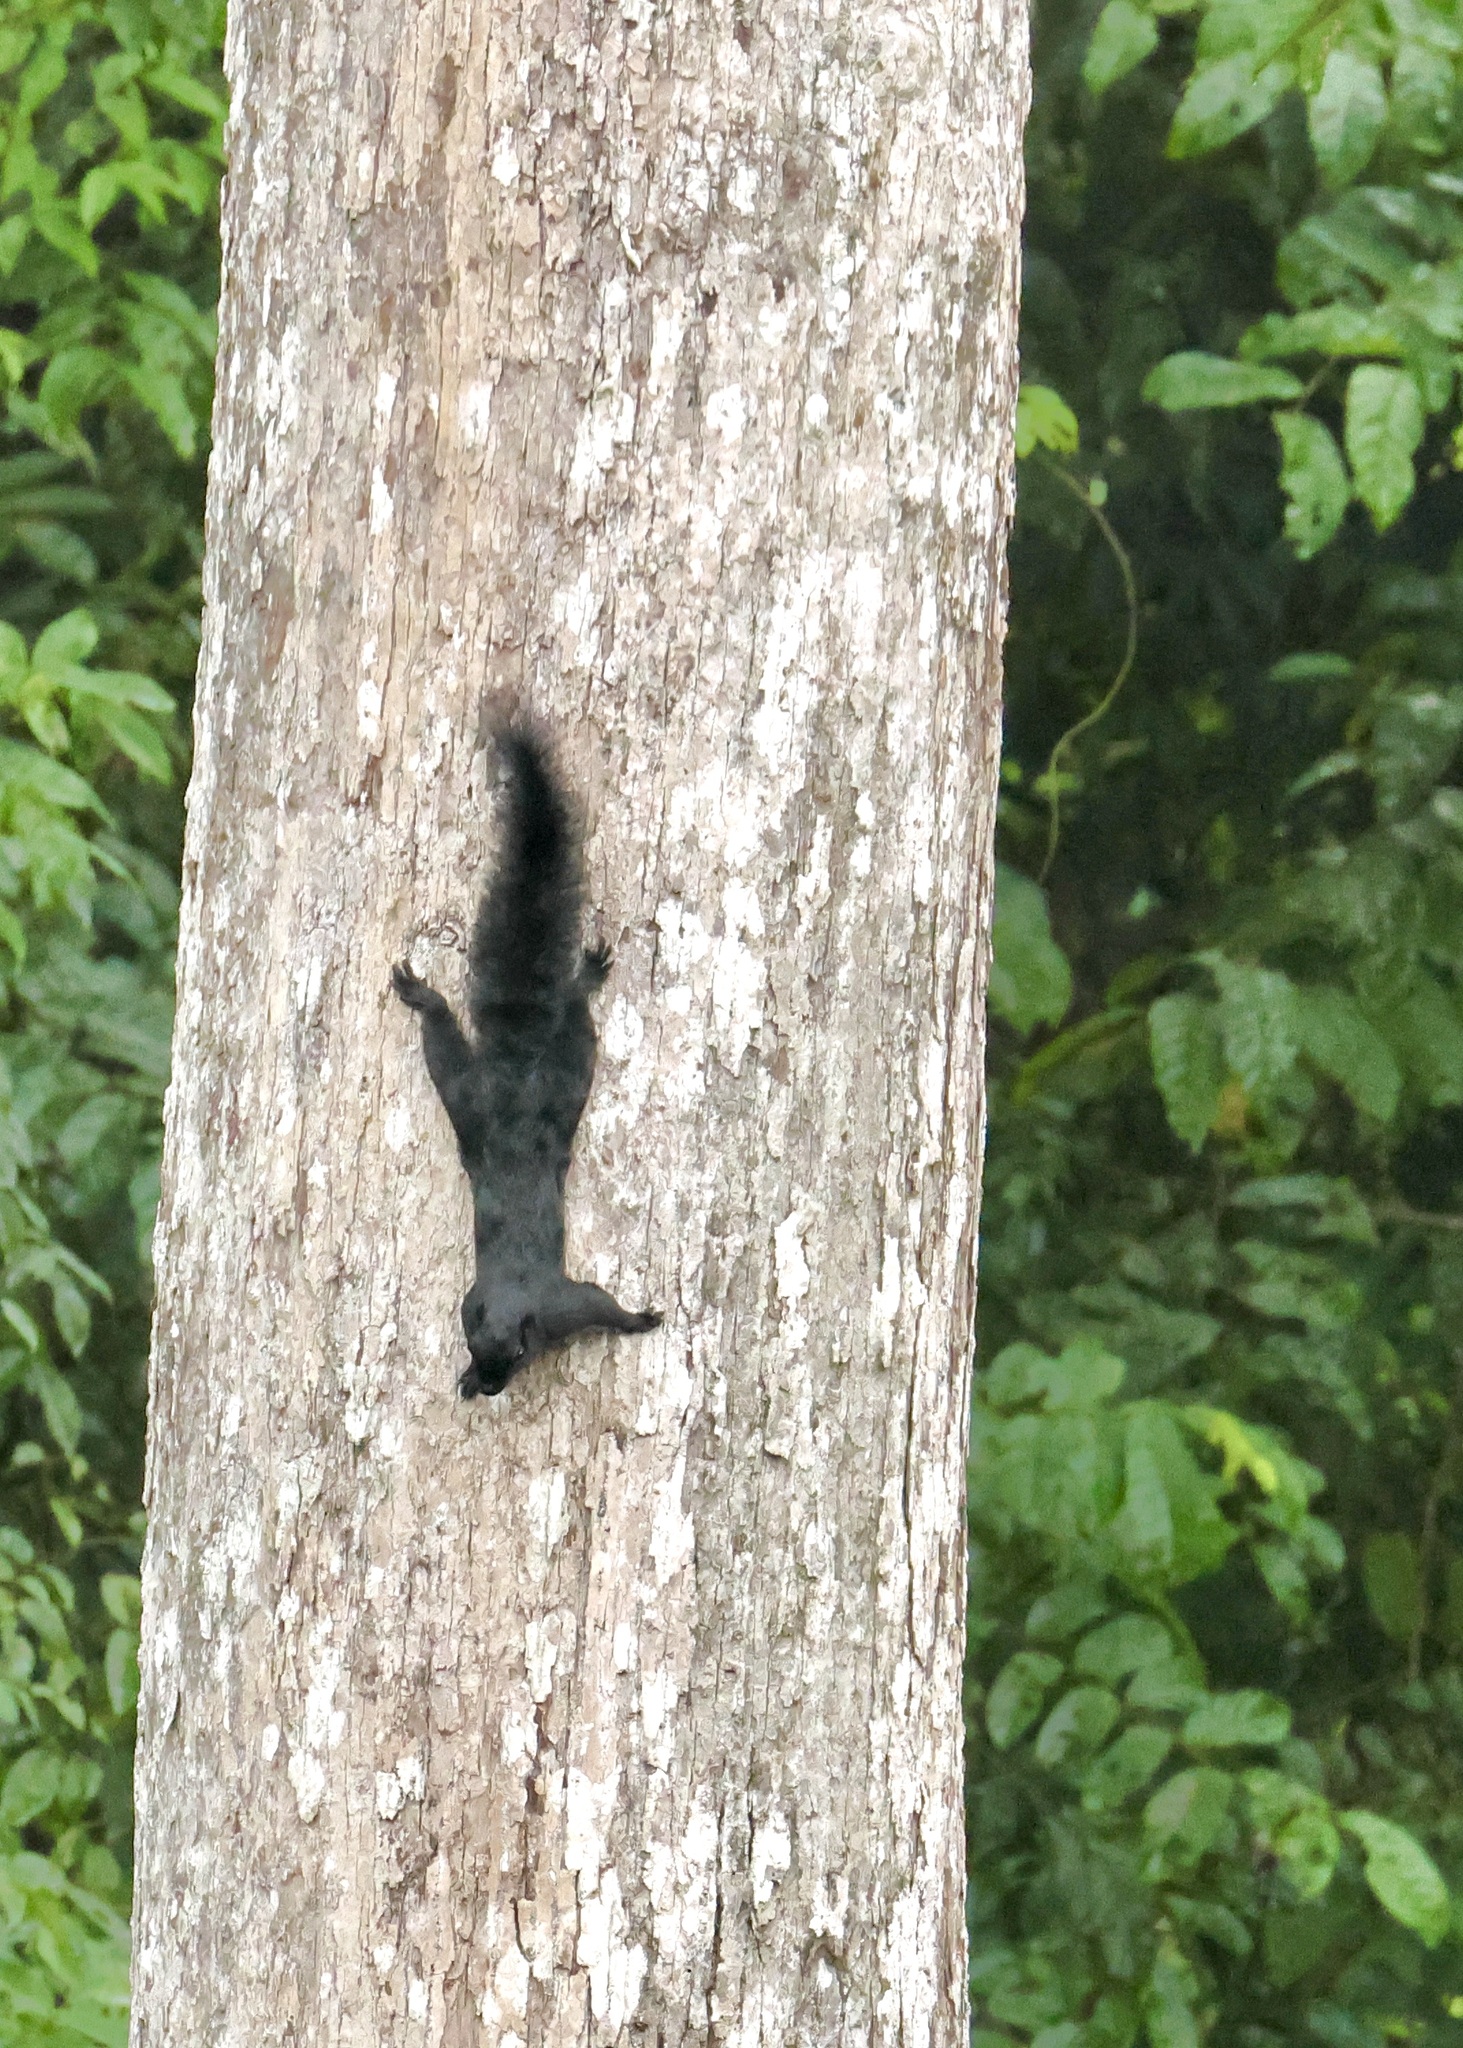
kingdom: Animalia
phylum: Chordata
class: Mammalia
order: Rodentia
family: Sciuridae
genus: Callosciurus
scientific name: Callosciurus prevostii
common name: Prevost's squirrel
